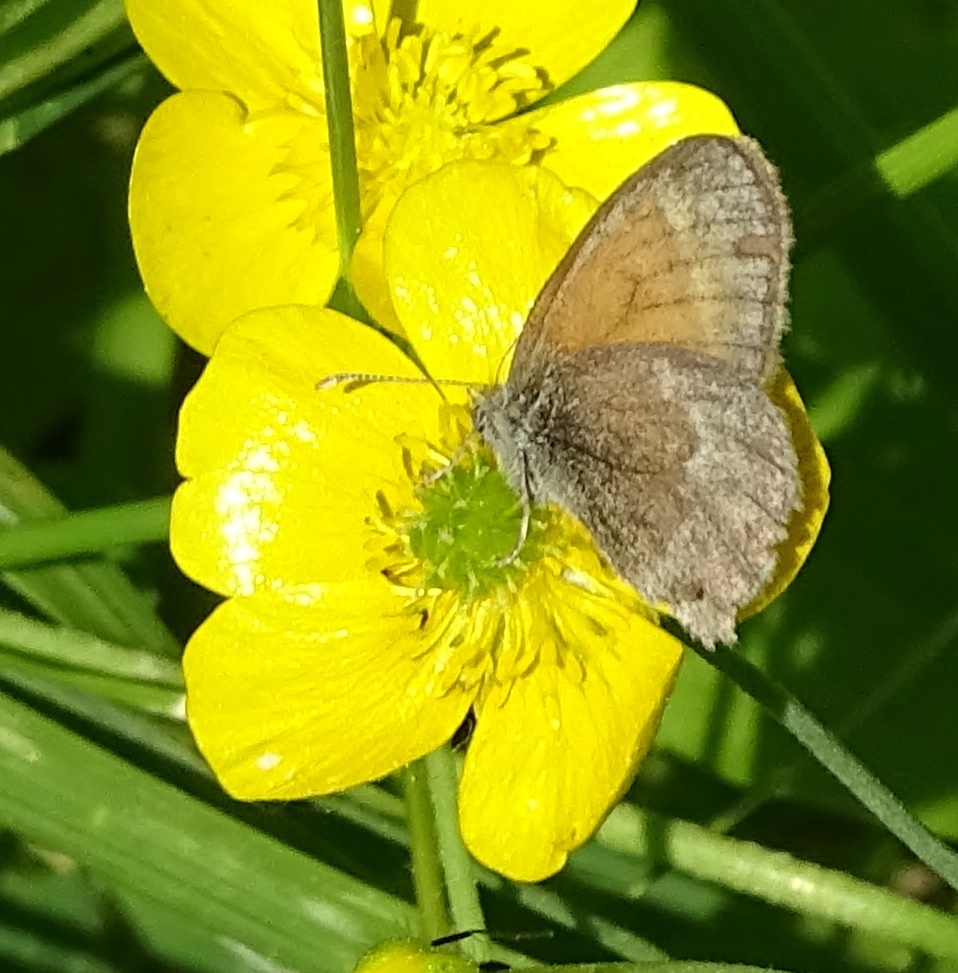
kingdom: Animalia
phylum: Arthropoda
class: Insecta
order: Lepidoptera
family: Nymphalidae
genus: Coenonympha
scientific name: Coenonympha california
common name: Common ringlet
